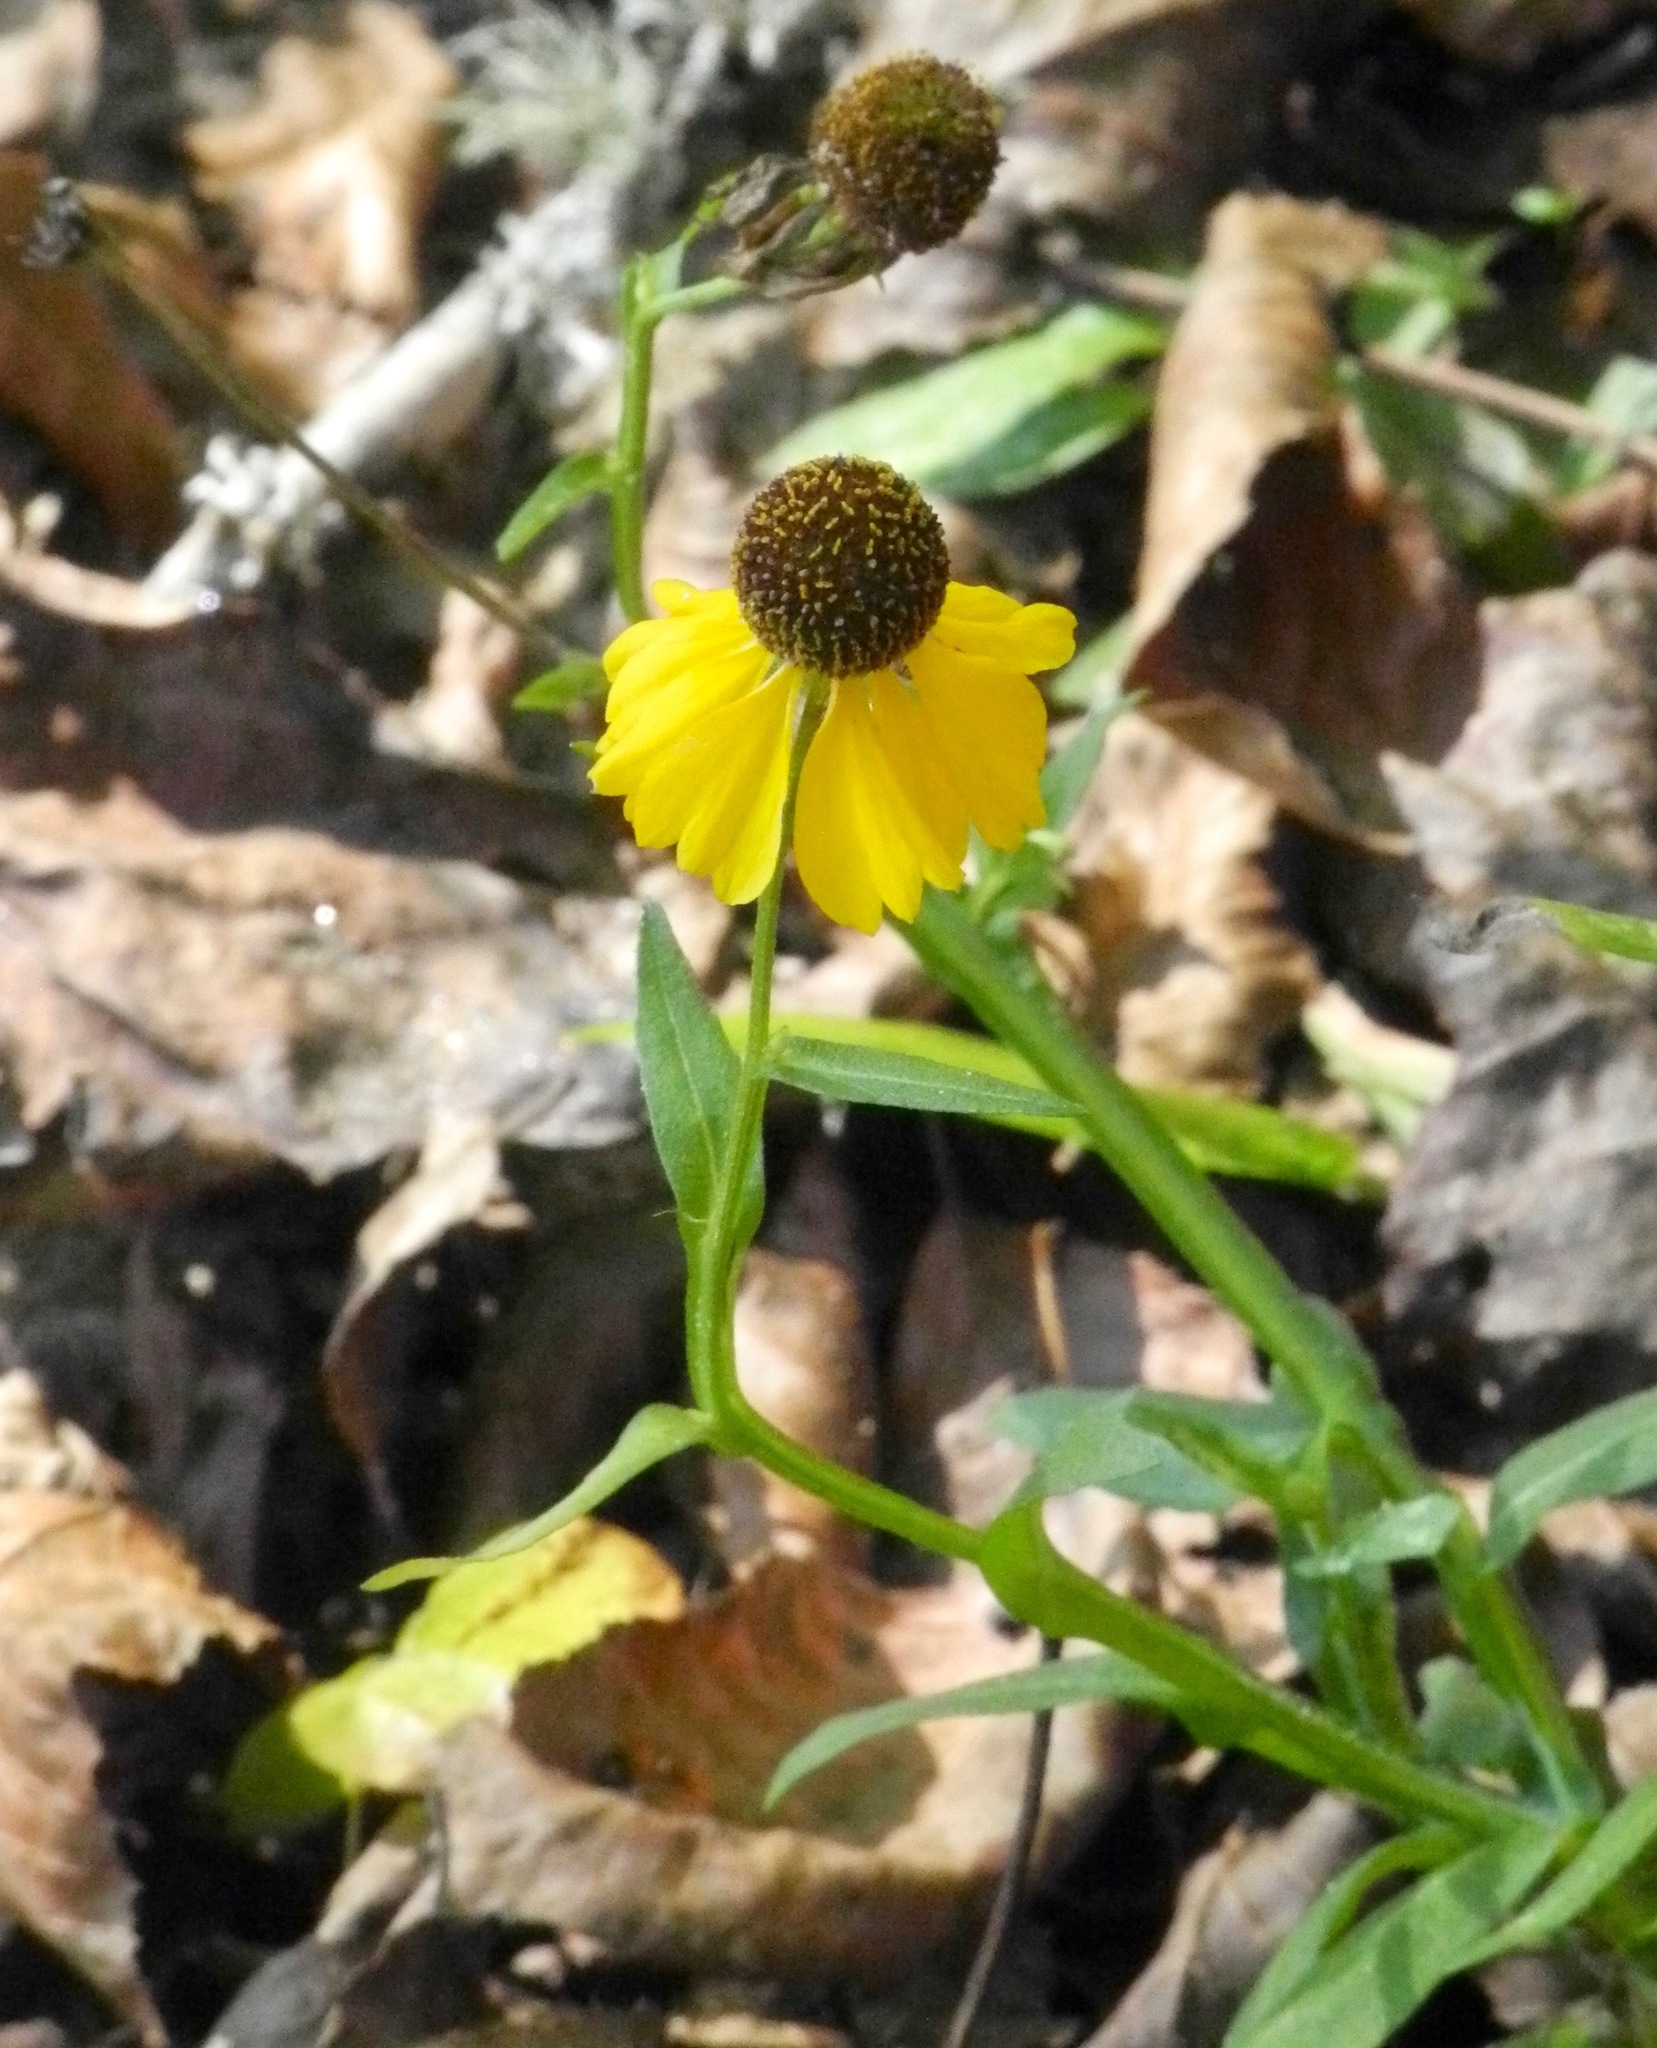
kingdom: Plantae
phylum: Tracheophyta
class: Magnoliopsida
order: Asterales
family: Asteraceae
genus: Helenium
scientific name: Helenium flexuosum
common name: Naked-flowered sneezeweed
